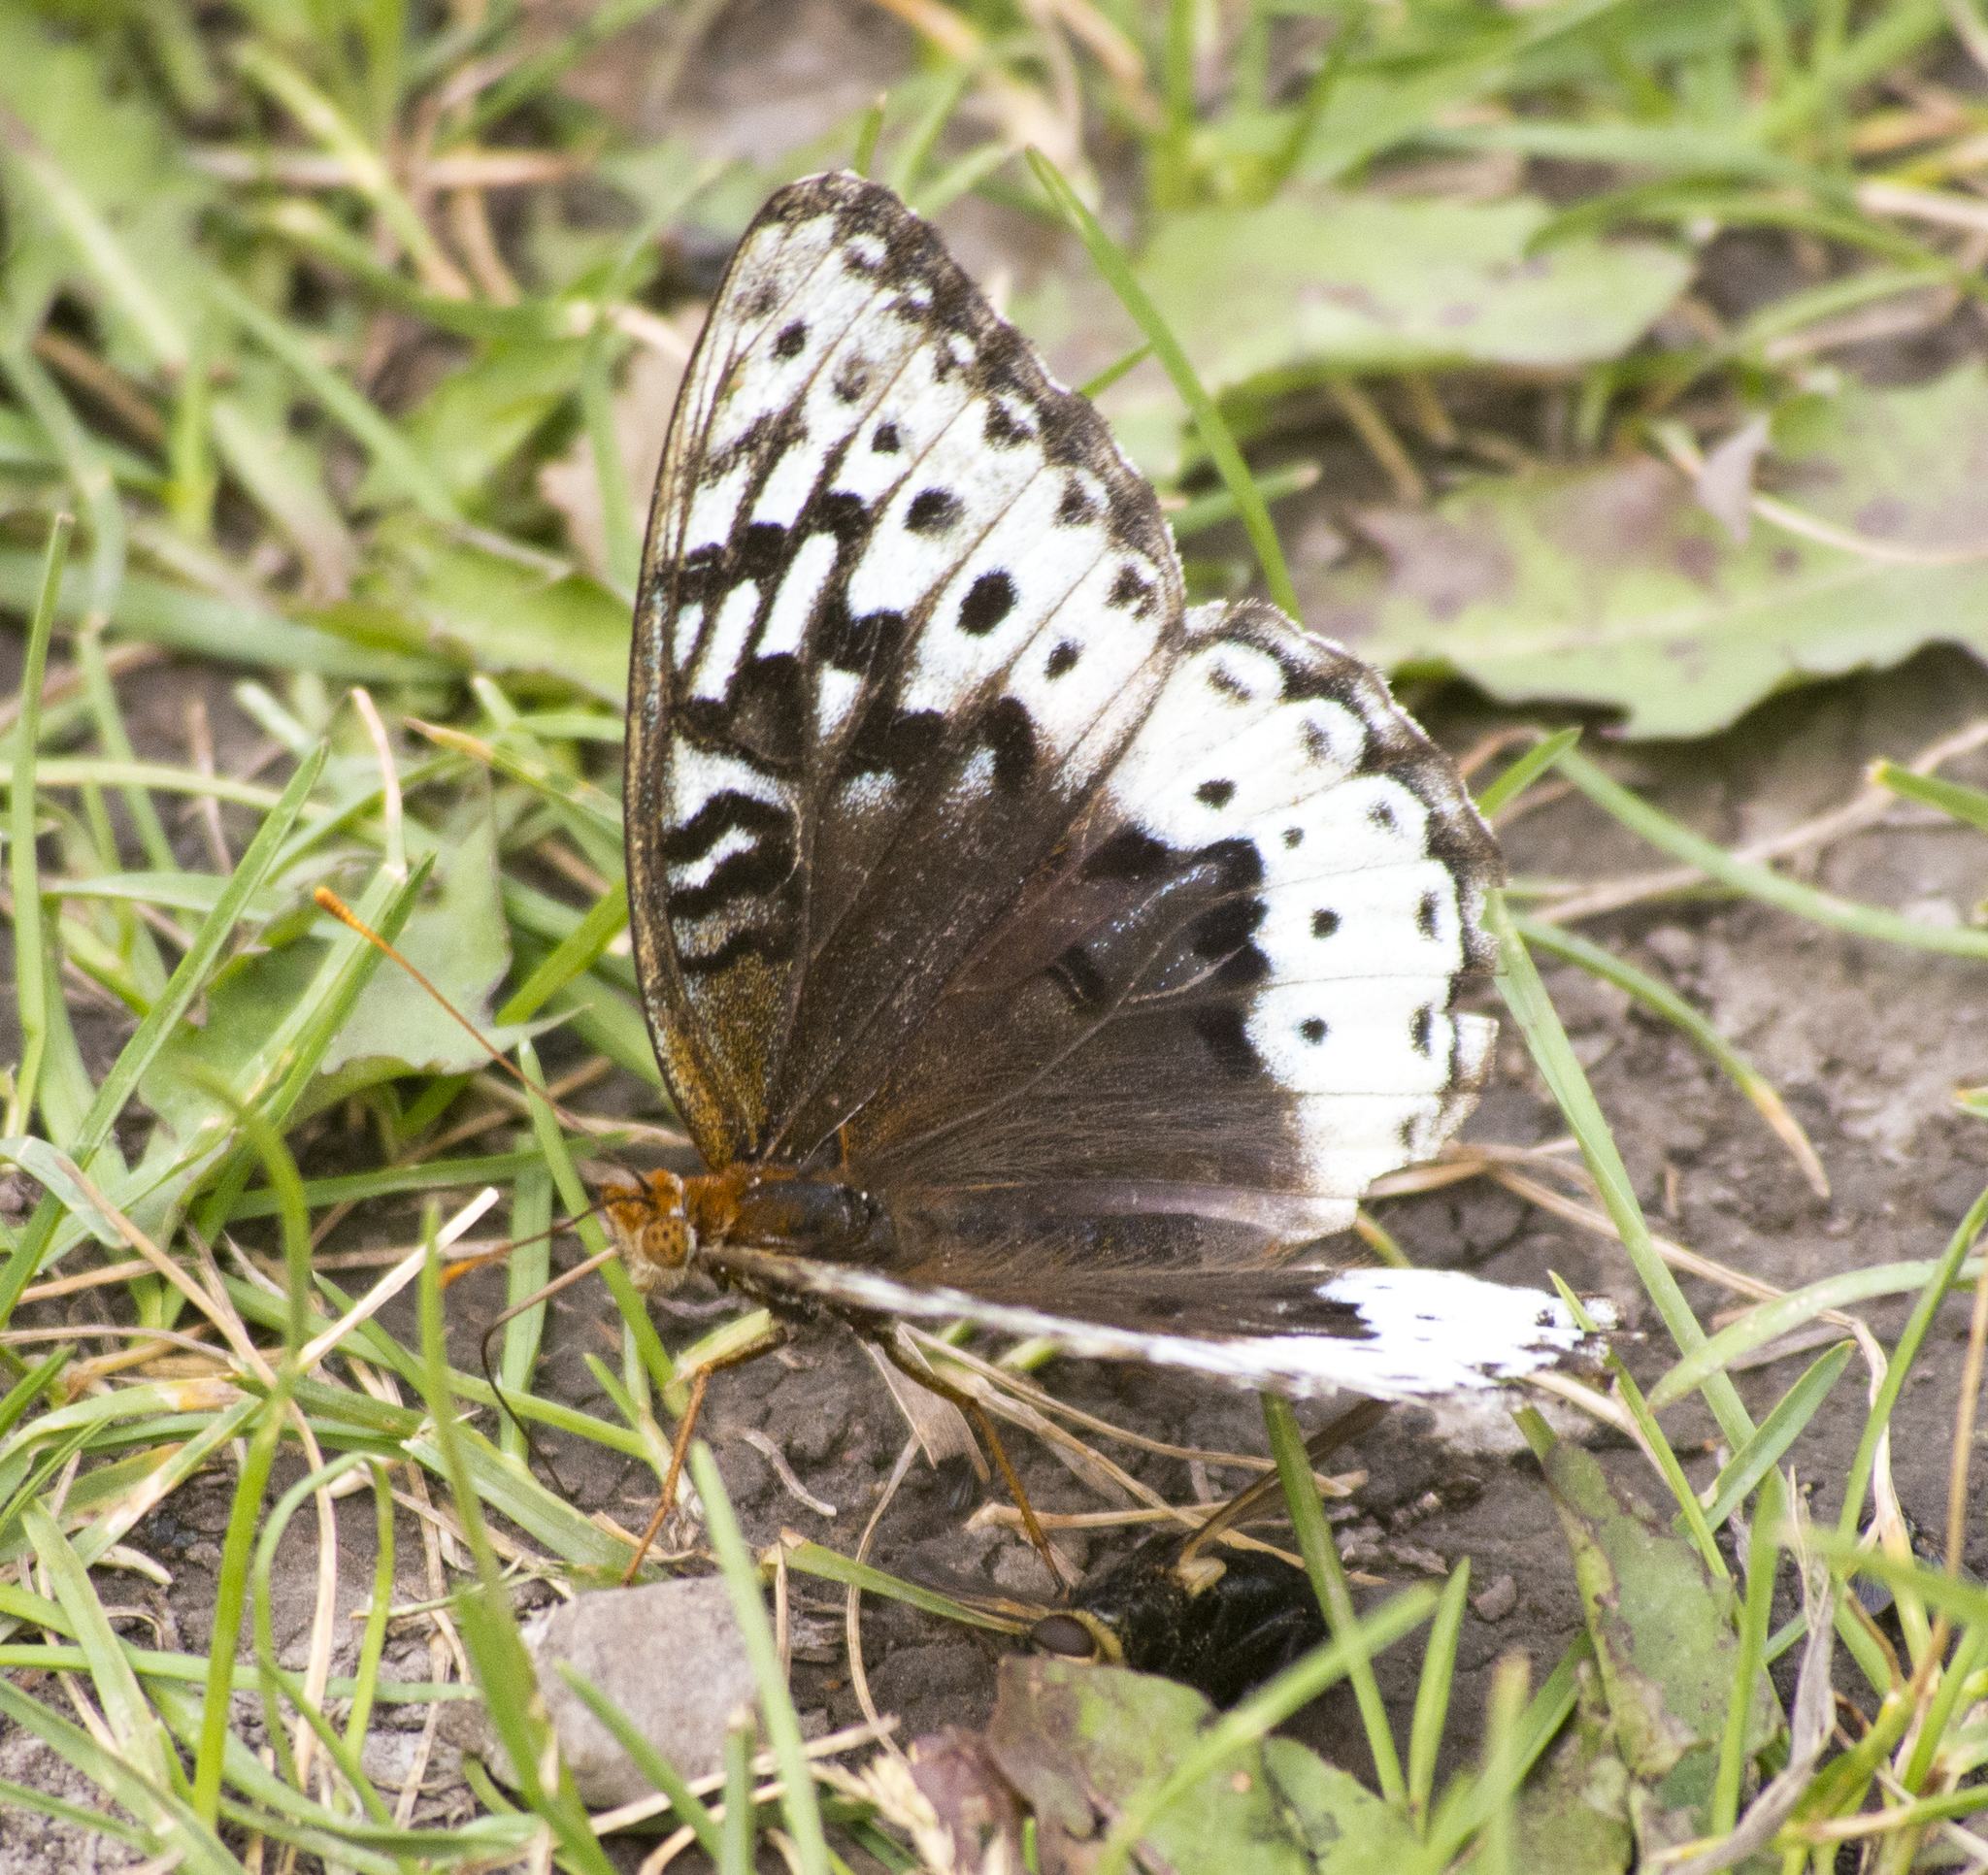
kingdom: Animalia
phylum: Arthropoda
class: Insecta
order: Lepidoptera
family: Nymphalidae
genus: Speyeria
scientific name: Speyeria cybele
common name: Great spangled fritillary
